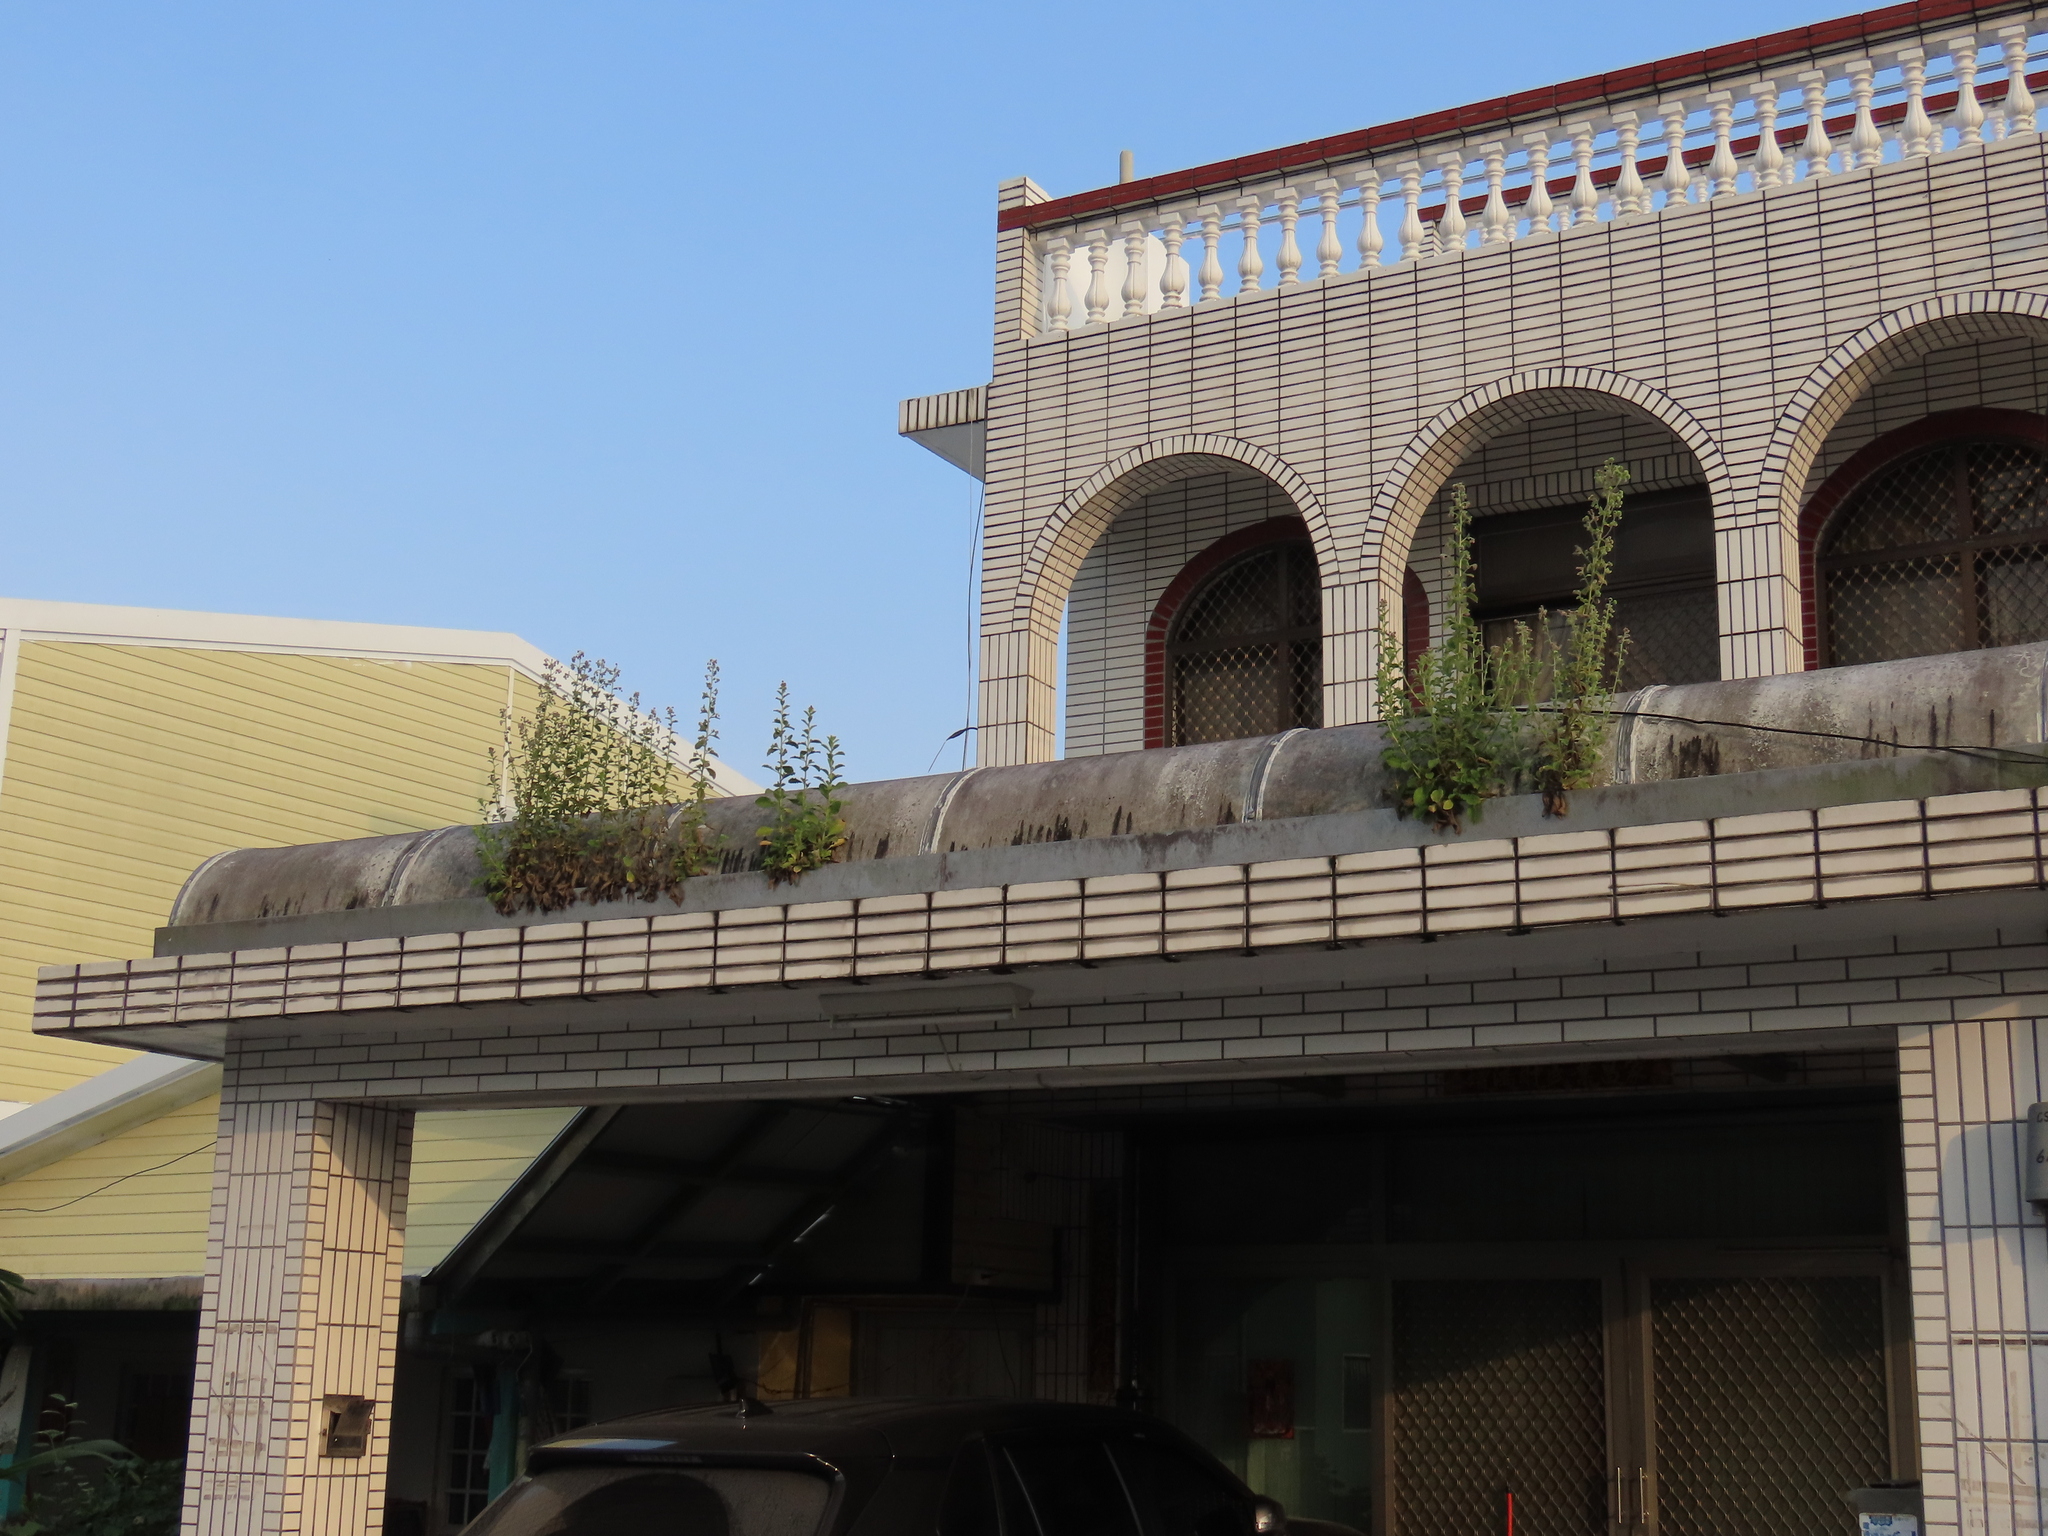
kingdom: Plantae
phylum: Tracheophyta
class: Magnoliopsida
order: Asterales
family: Asteraceae
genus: Blumea
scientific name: Blumea axillaris
